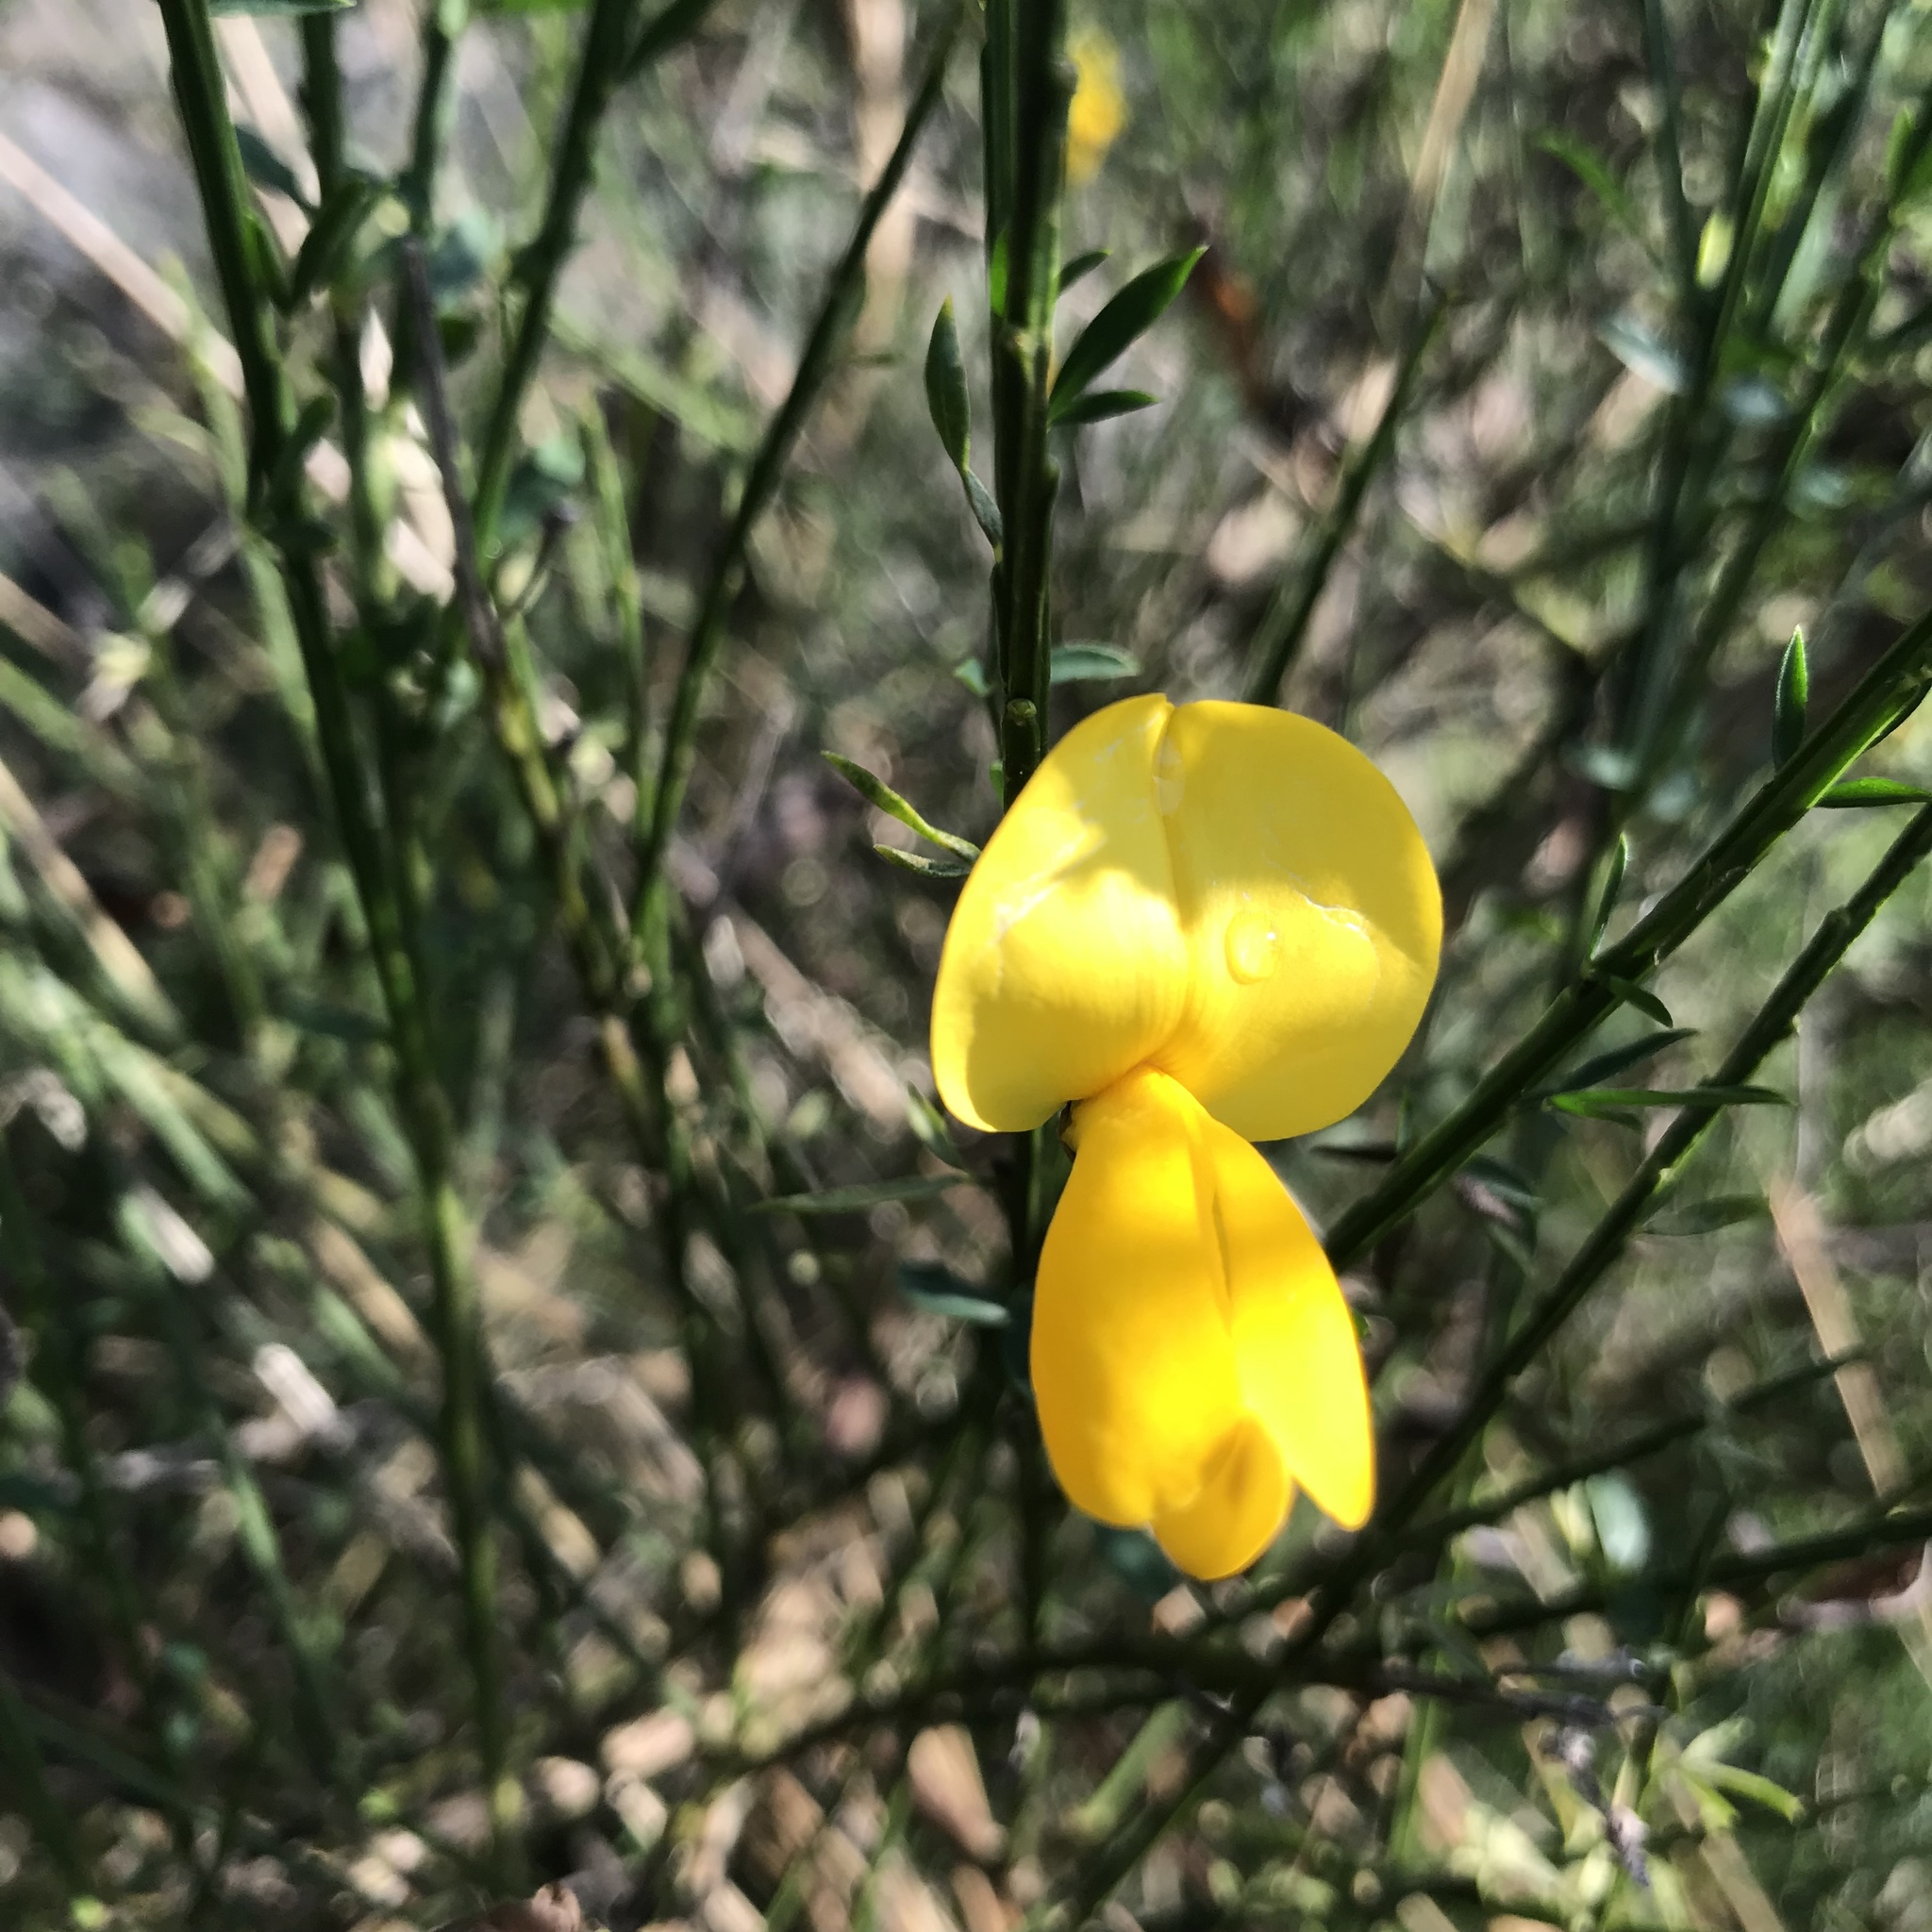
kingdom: Plantae
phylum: Tracheophyta
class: Magnoliopsida
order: Fabales
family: Fabaceae
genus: Cytisus
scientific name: Cytisus scoparius
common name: Scotch broom
